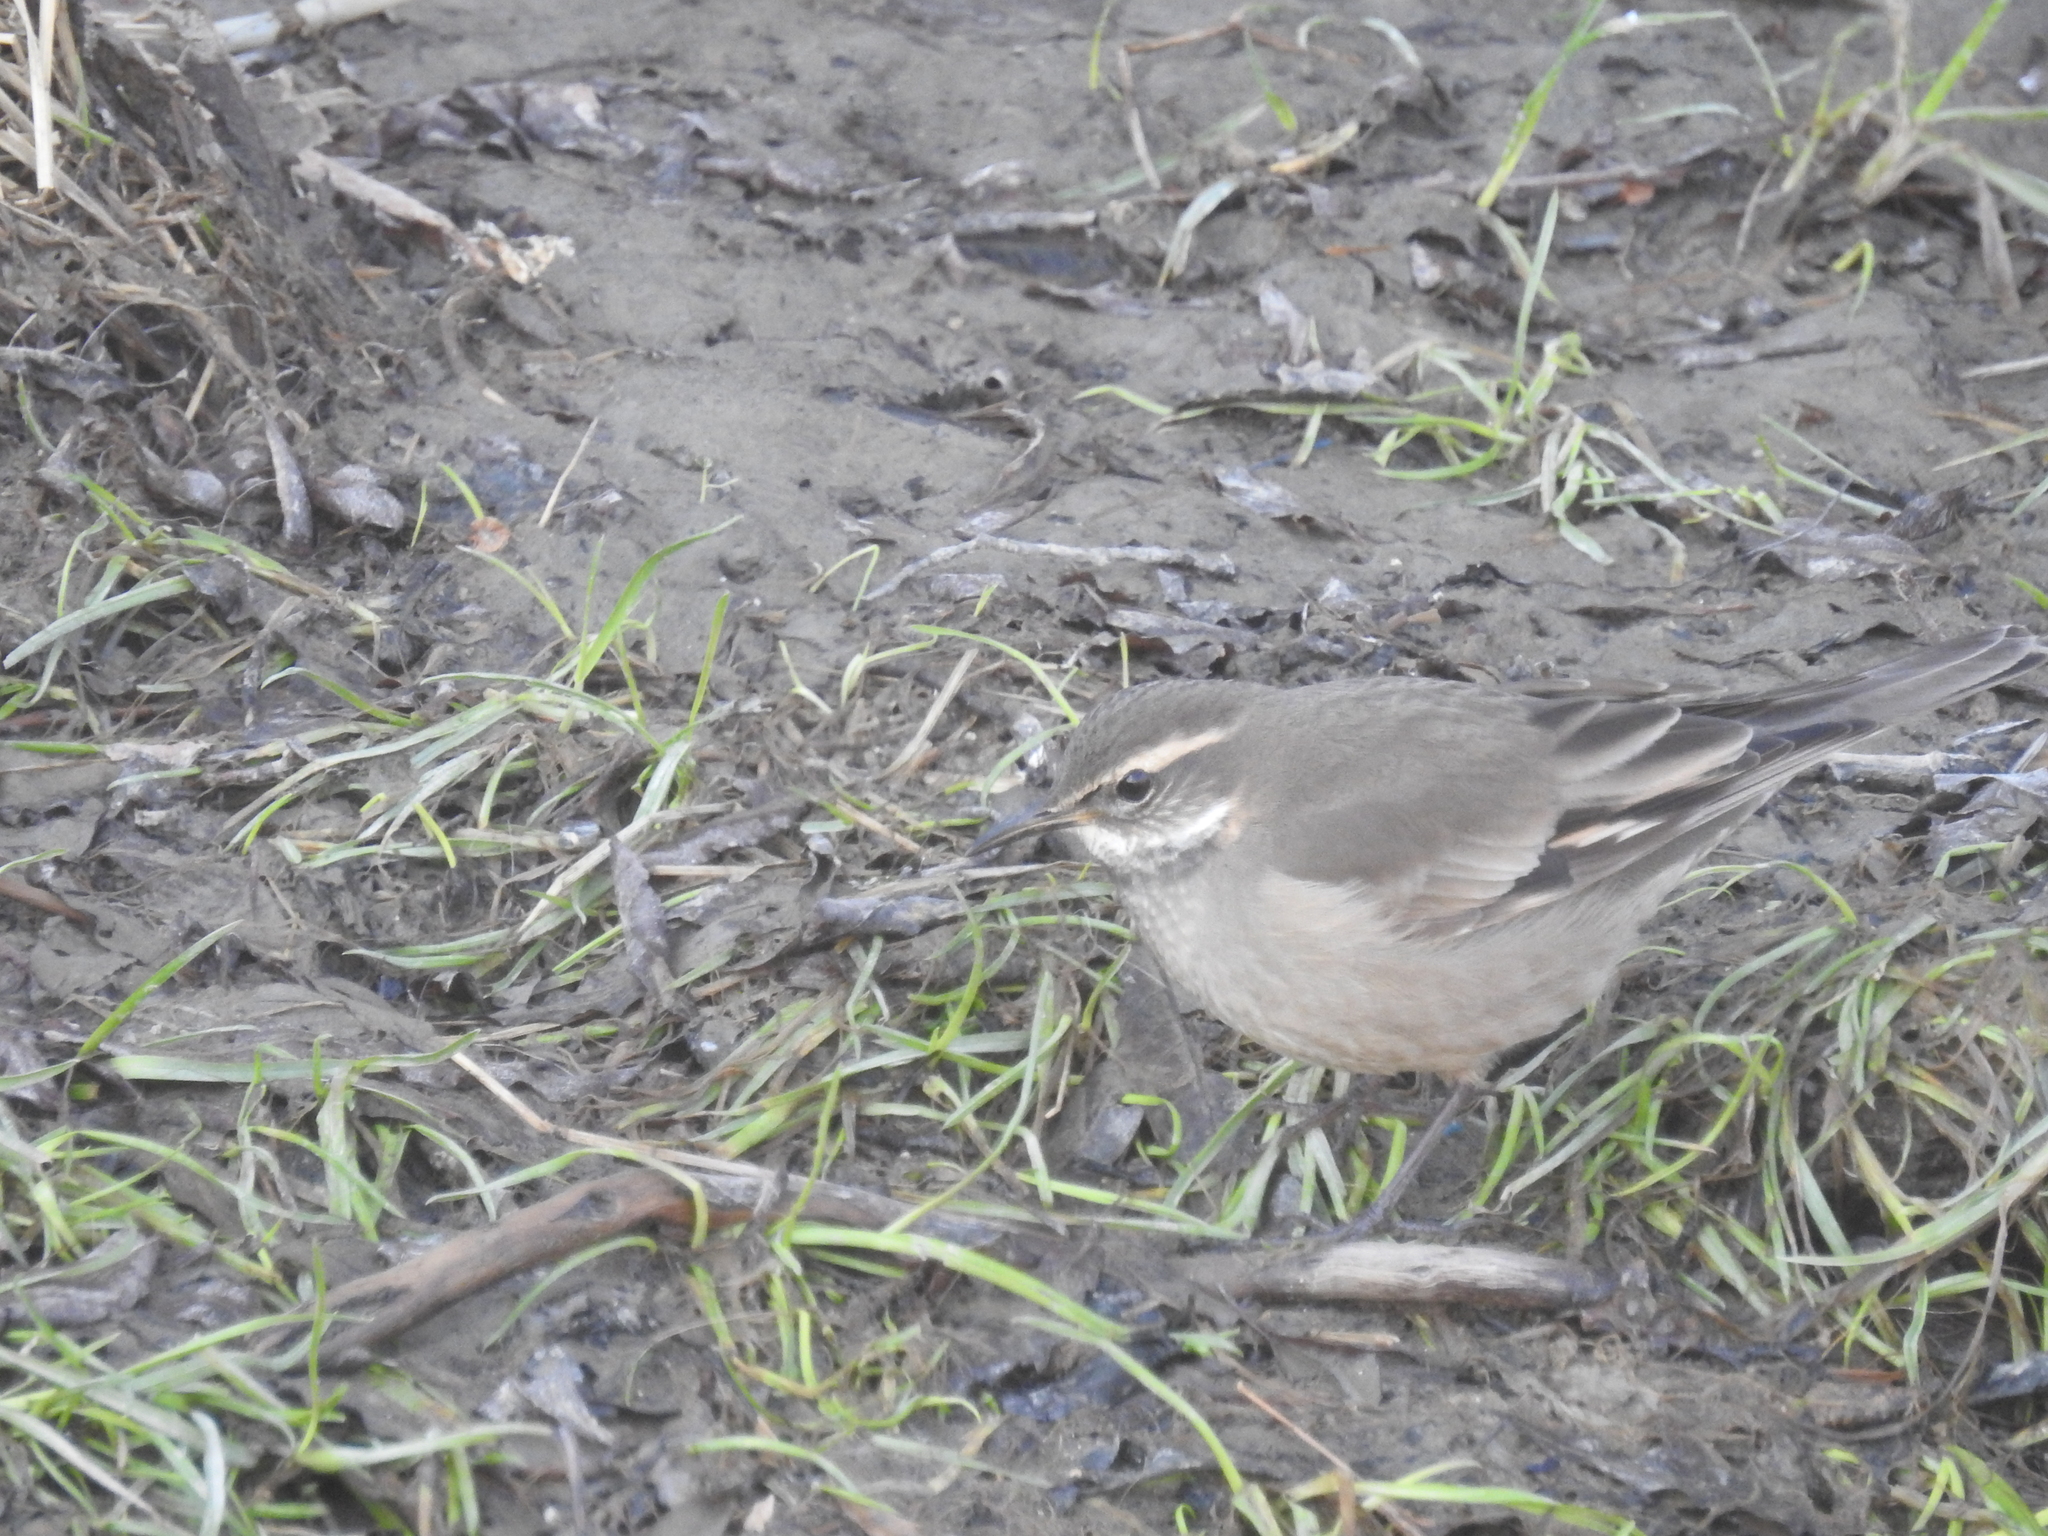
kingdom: Animalia
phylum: Chordata
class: Aves
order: Passeriformes
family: Furnariidae
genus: Cinclodes
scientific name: Cinclodes fuscus
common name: Buff-winged cinclodes
